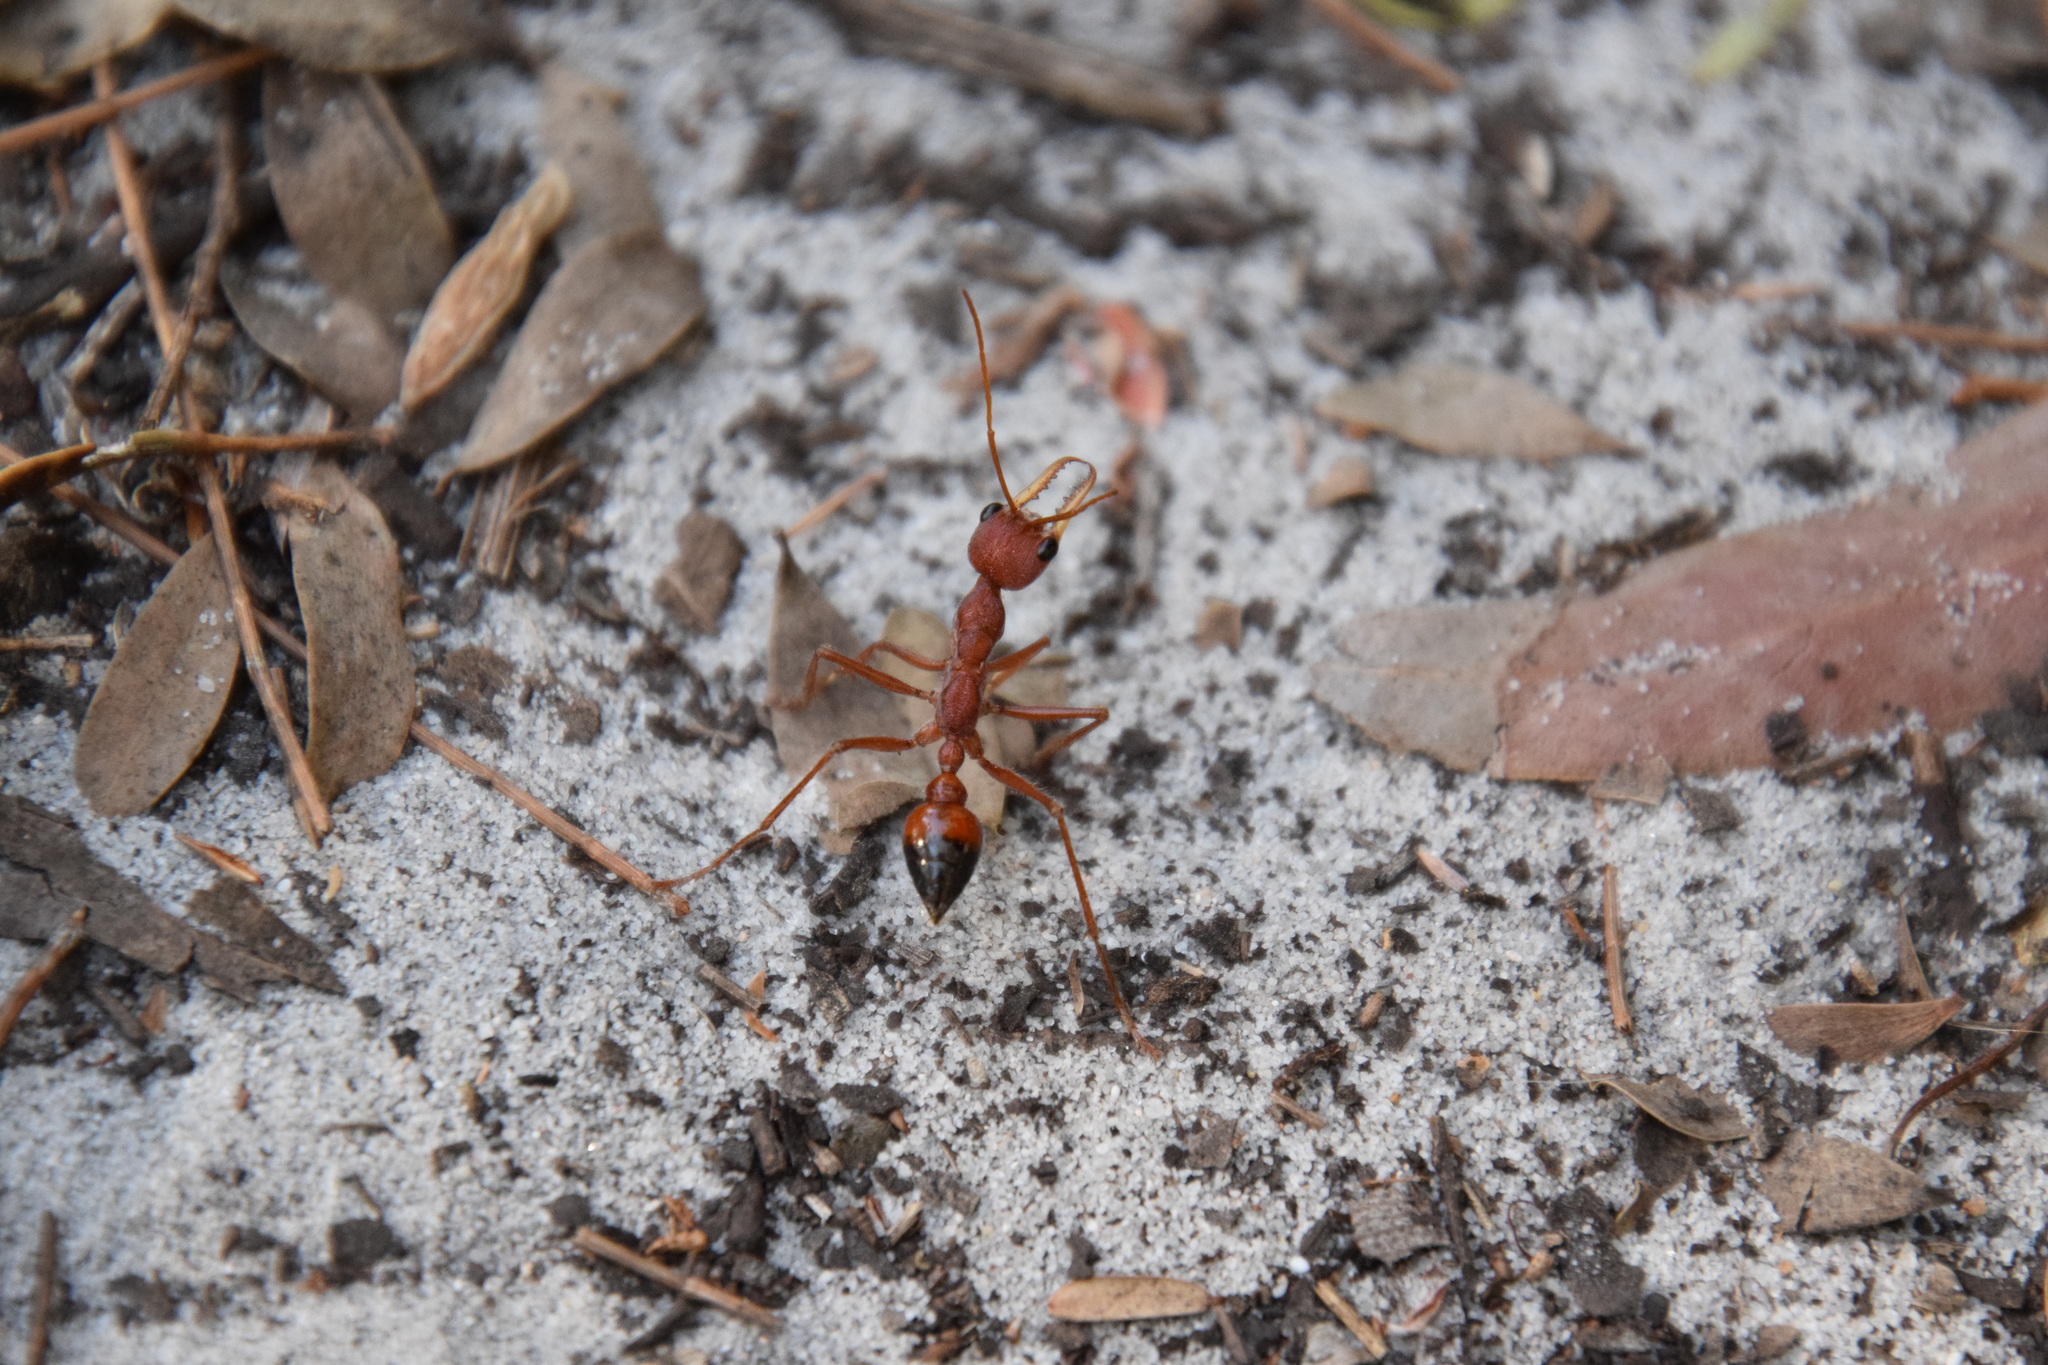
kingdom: Animalia
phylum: Arthropoda
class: Insecta
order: Hymenoptera
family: Formicidae
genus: Myrmecia
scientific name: Myrmecia gulosa
